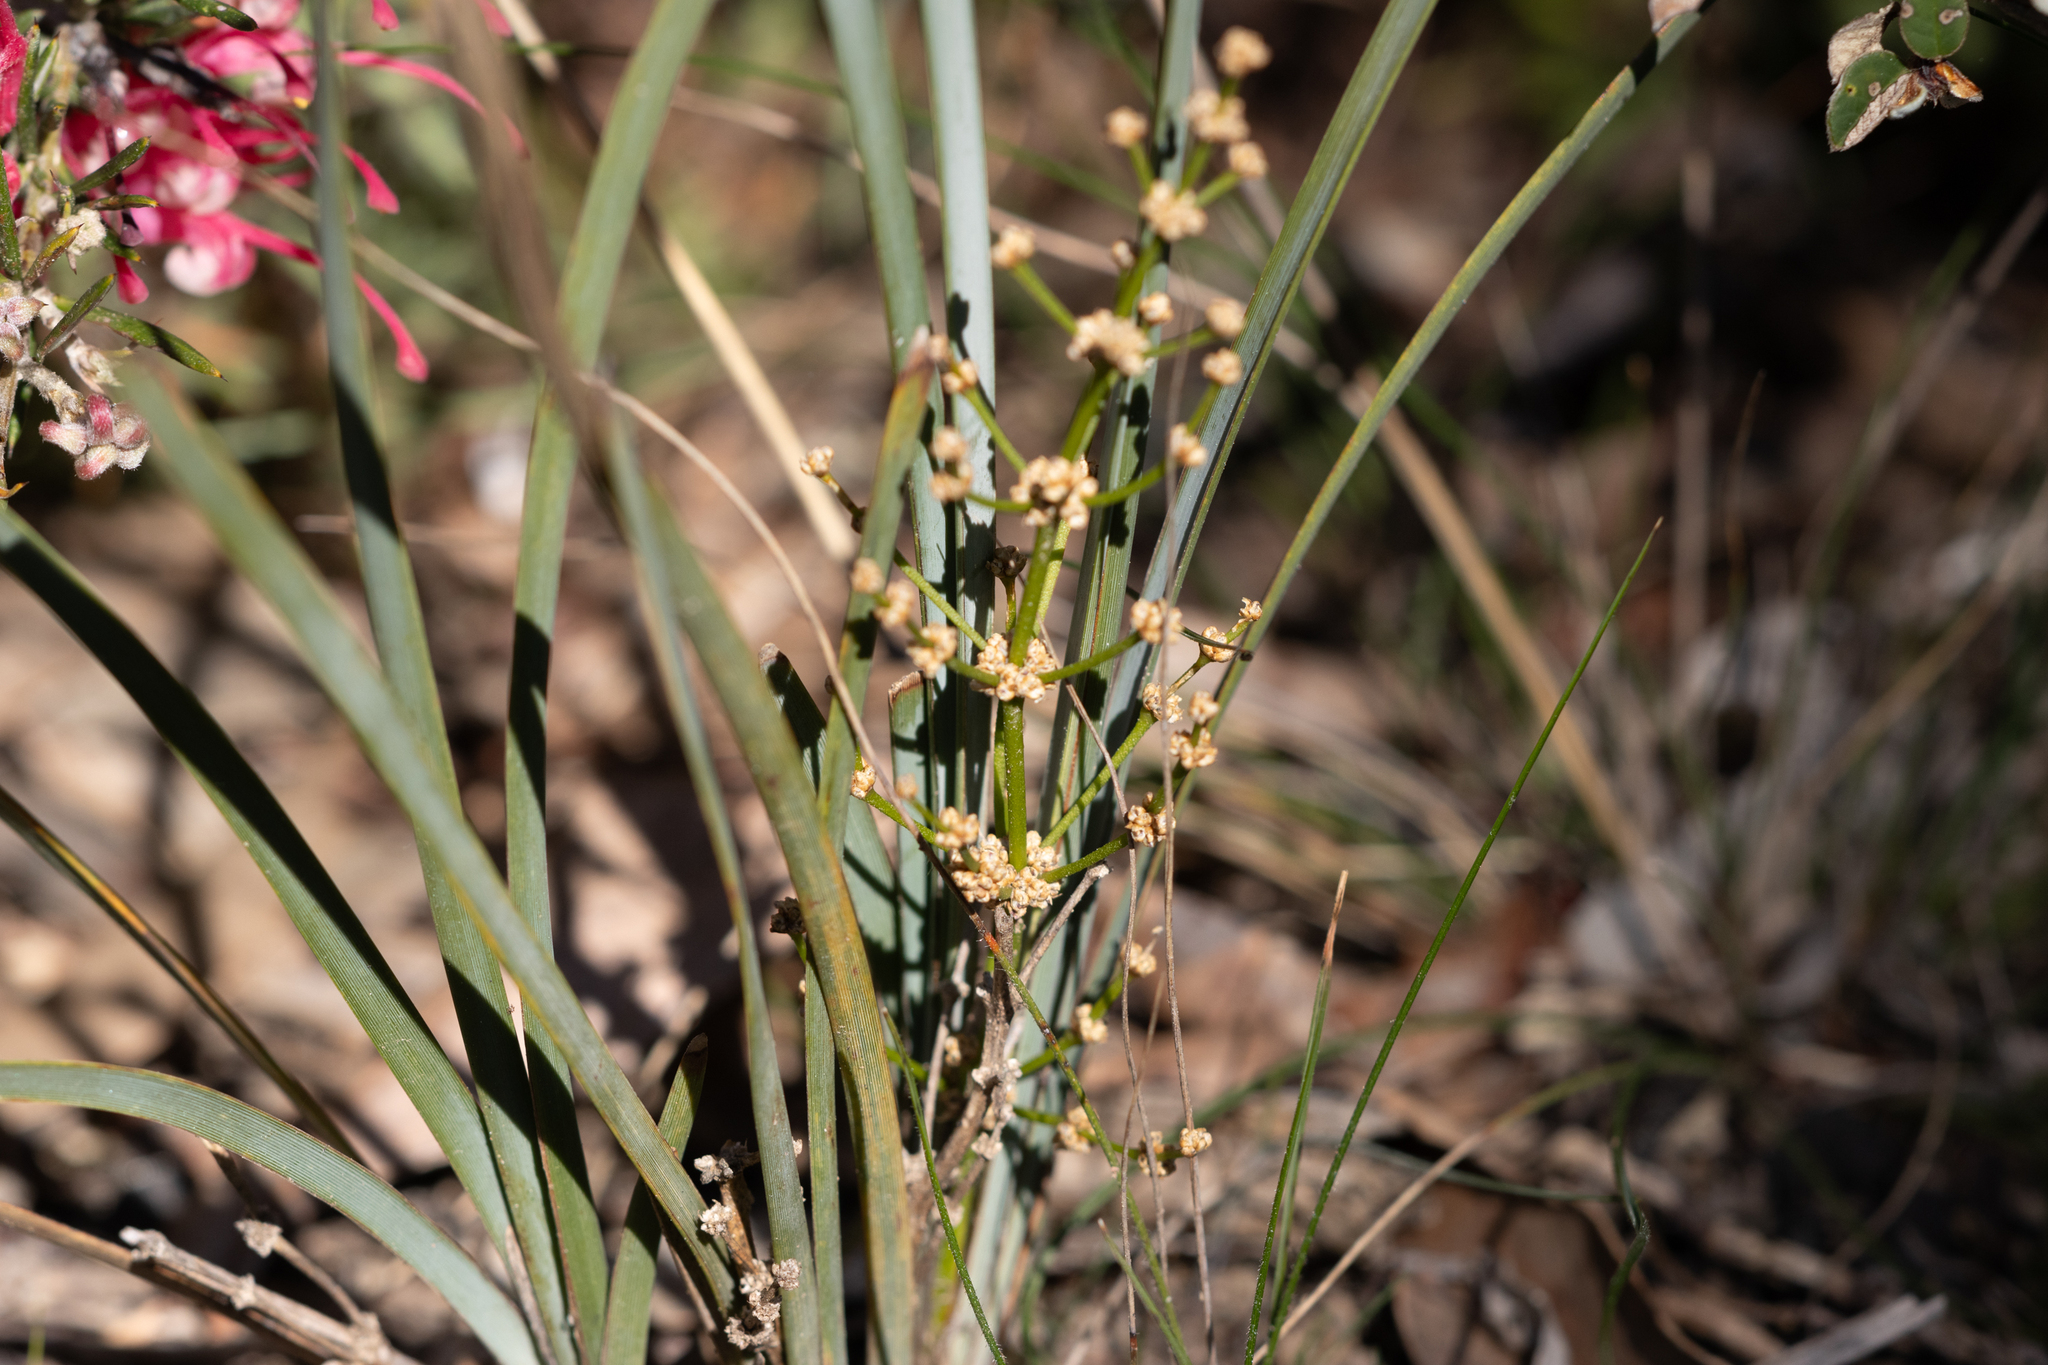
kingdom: Plantae
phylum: Tracheophyta
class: Liliopsida
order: Asparagales
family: Asparagaceae
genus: Lomandra
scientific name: Lomandra multiflora
